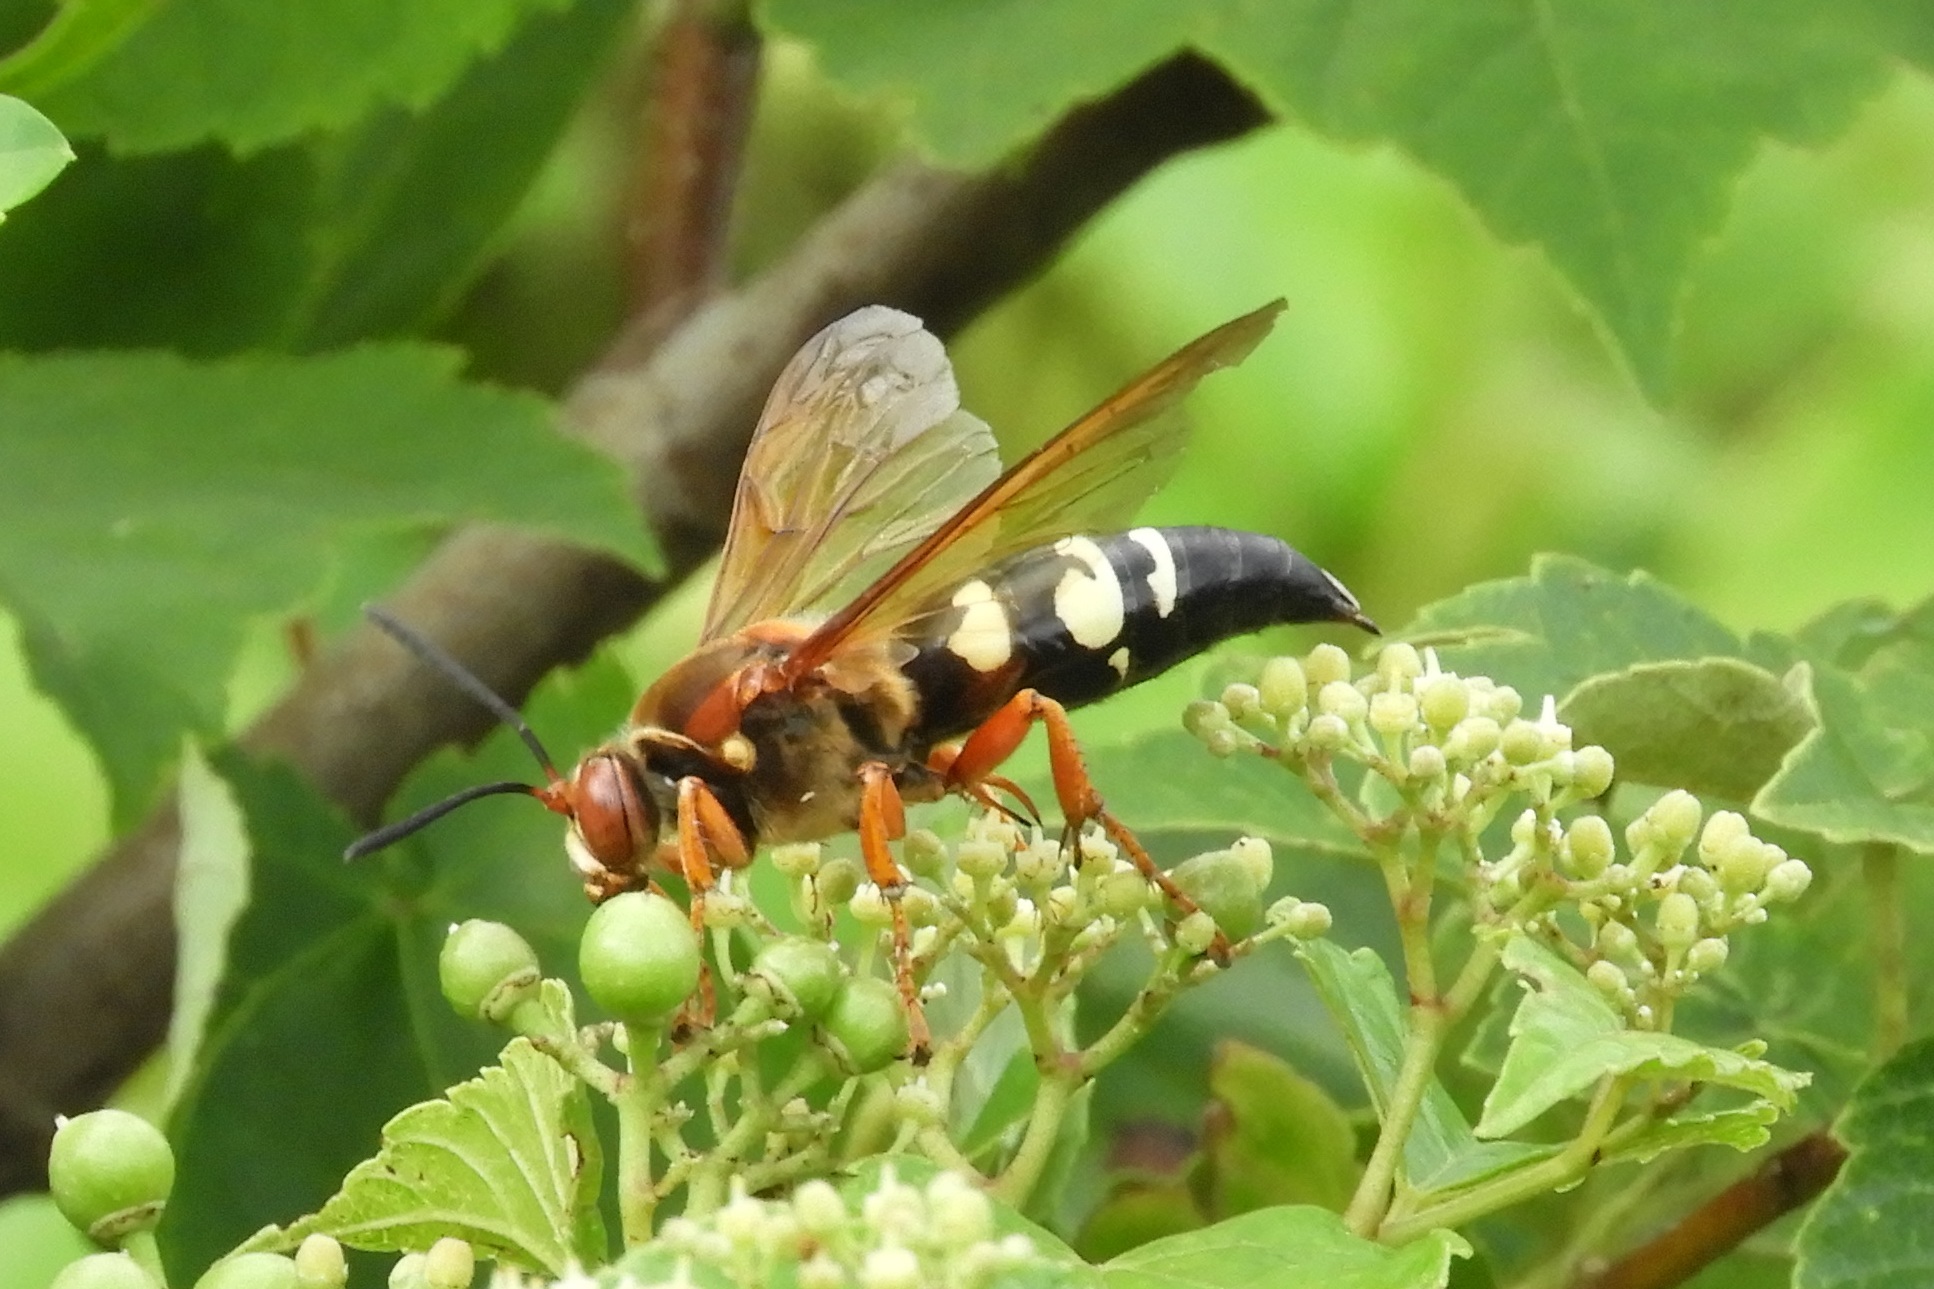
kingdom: Animalia
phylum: Arthropoda
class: Insecta
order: Hymenoptera
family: Crabronidae
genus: Sphecius
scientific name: Sphecius speciosus
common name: Cicada killer
